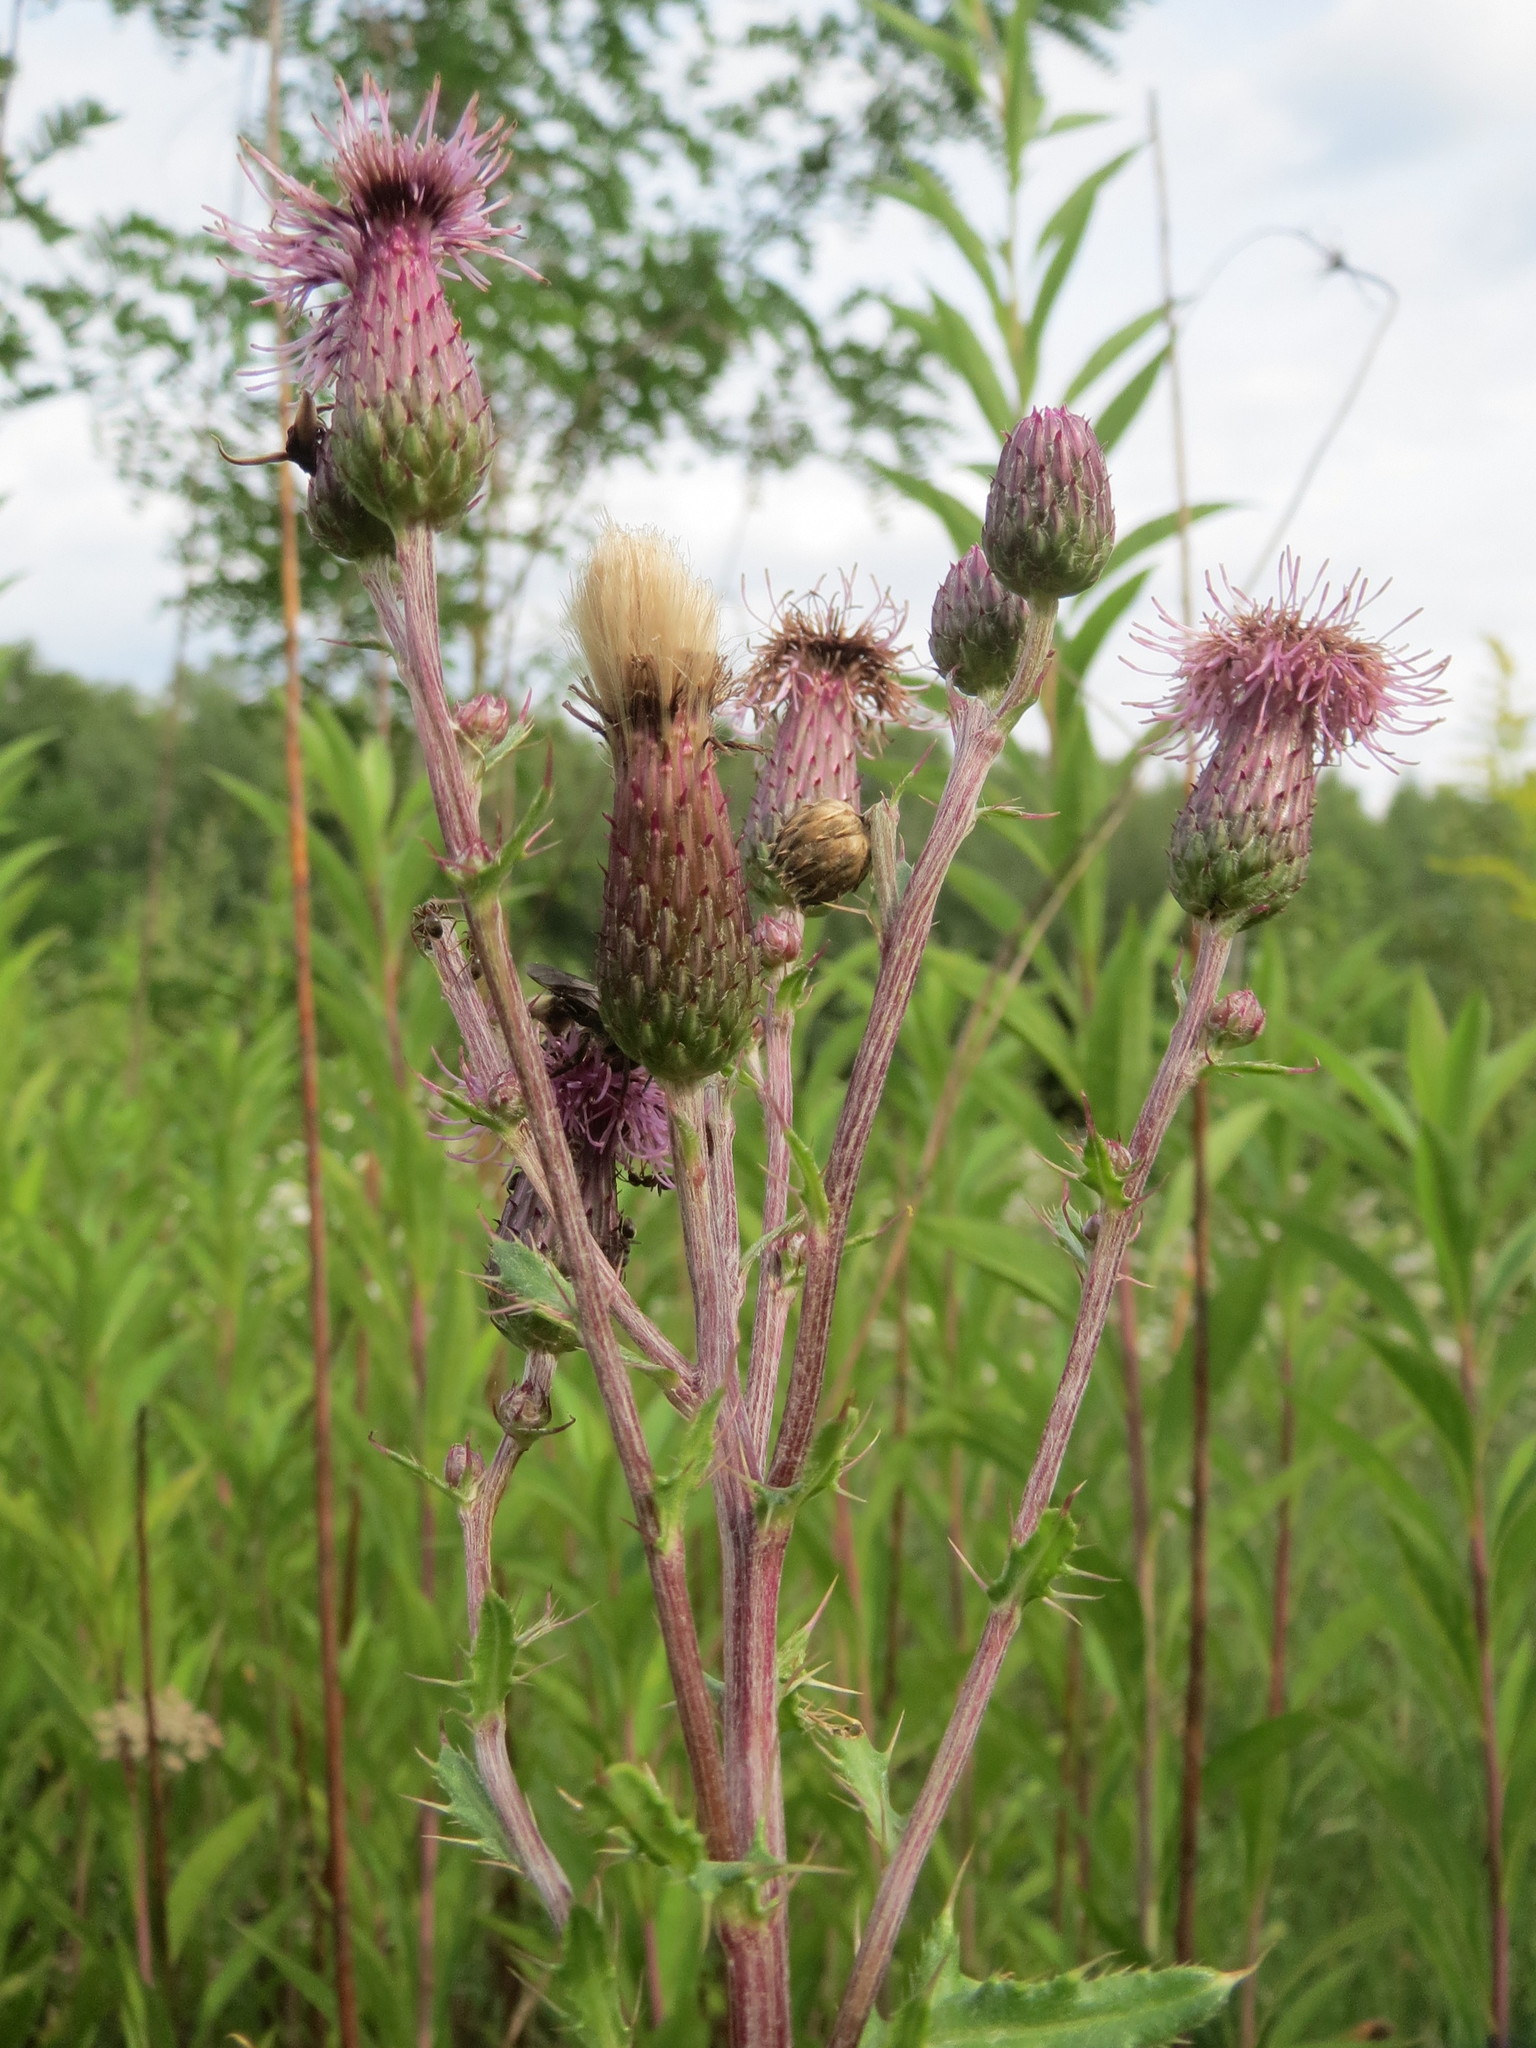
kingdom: Plantae
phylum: Tracheophyta
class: Magnoliopsida
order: Asterales
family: Asteraceae
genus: Cirsium
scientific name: Cirsium arvense
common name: Creeping thistle
